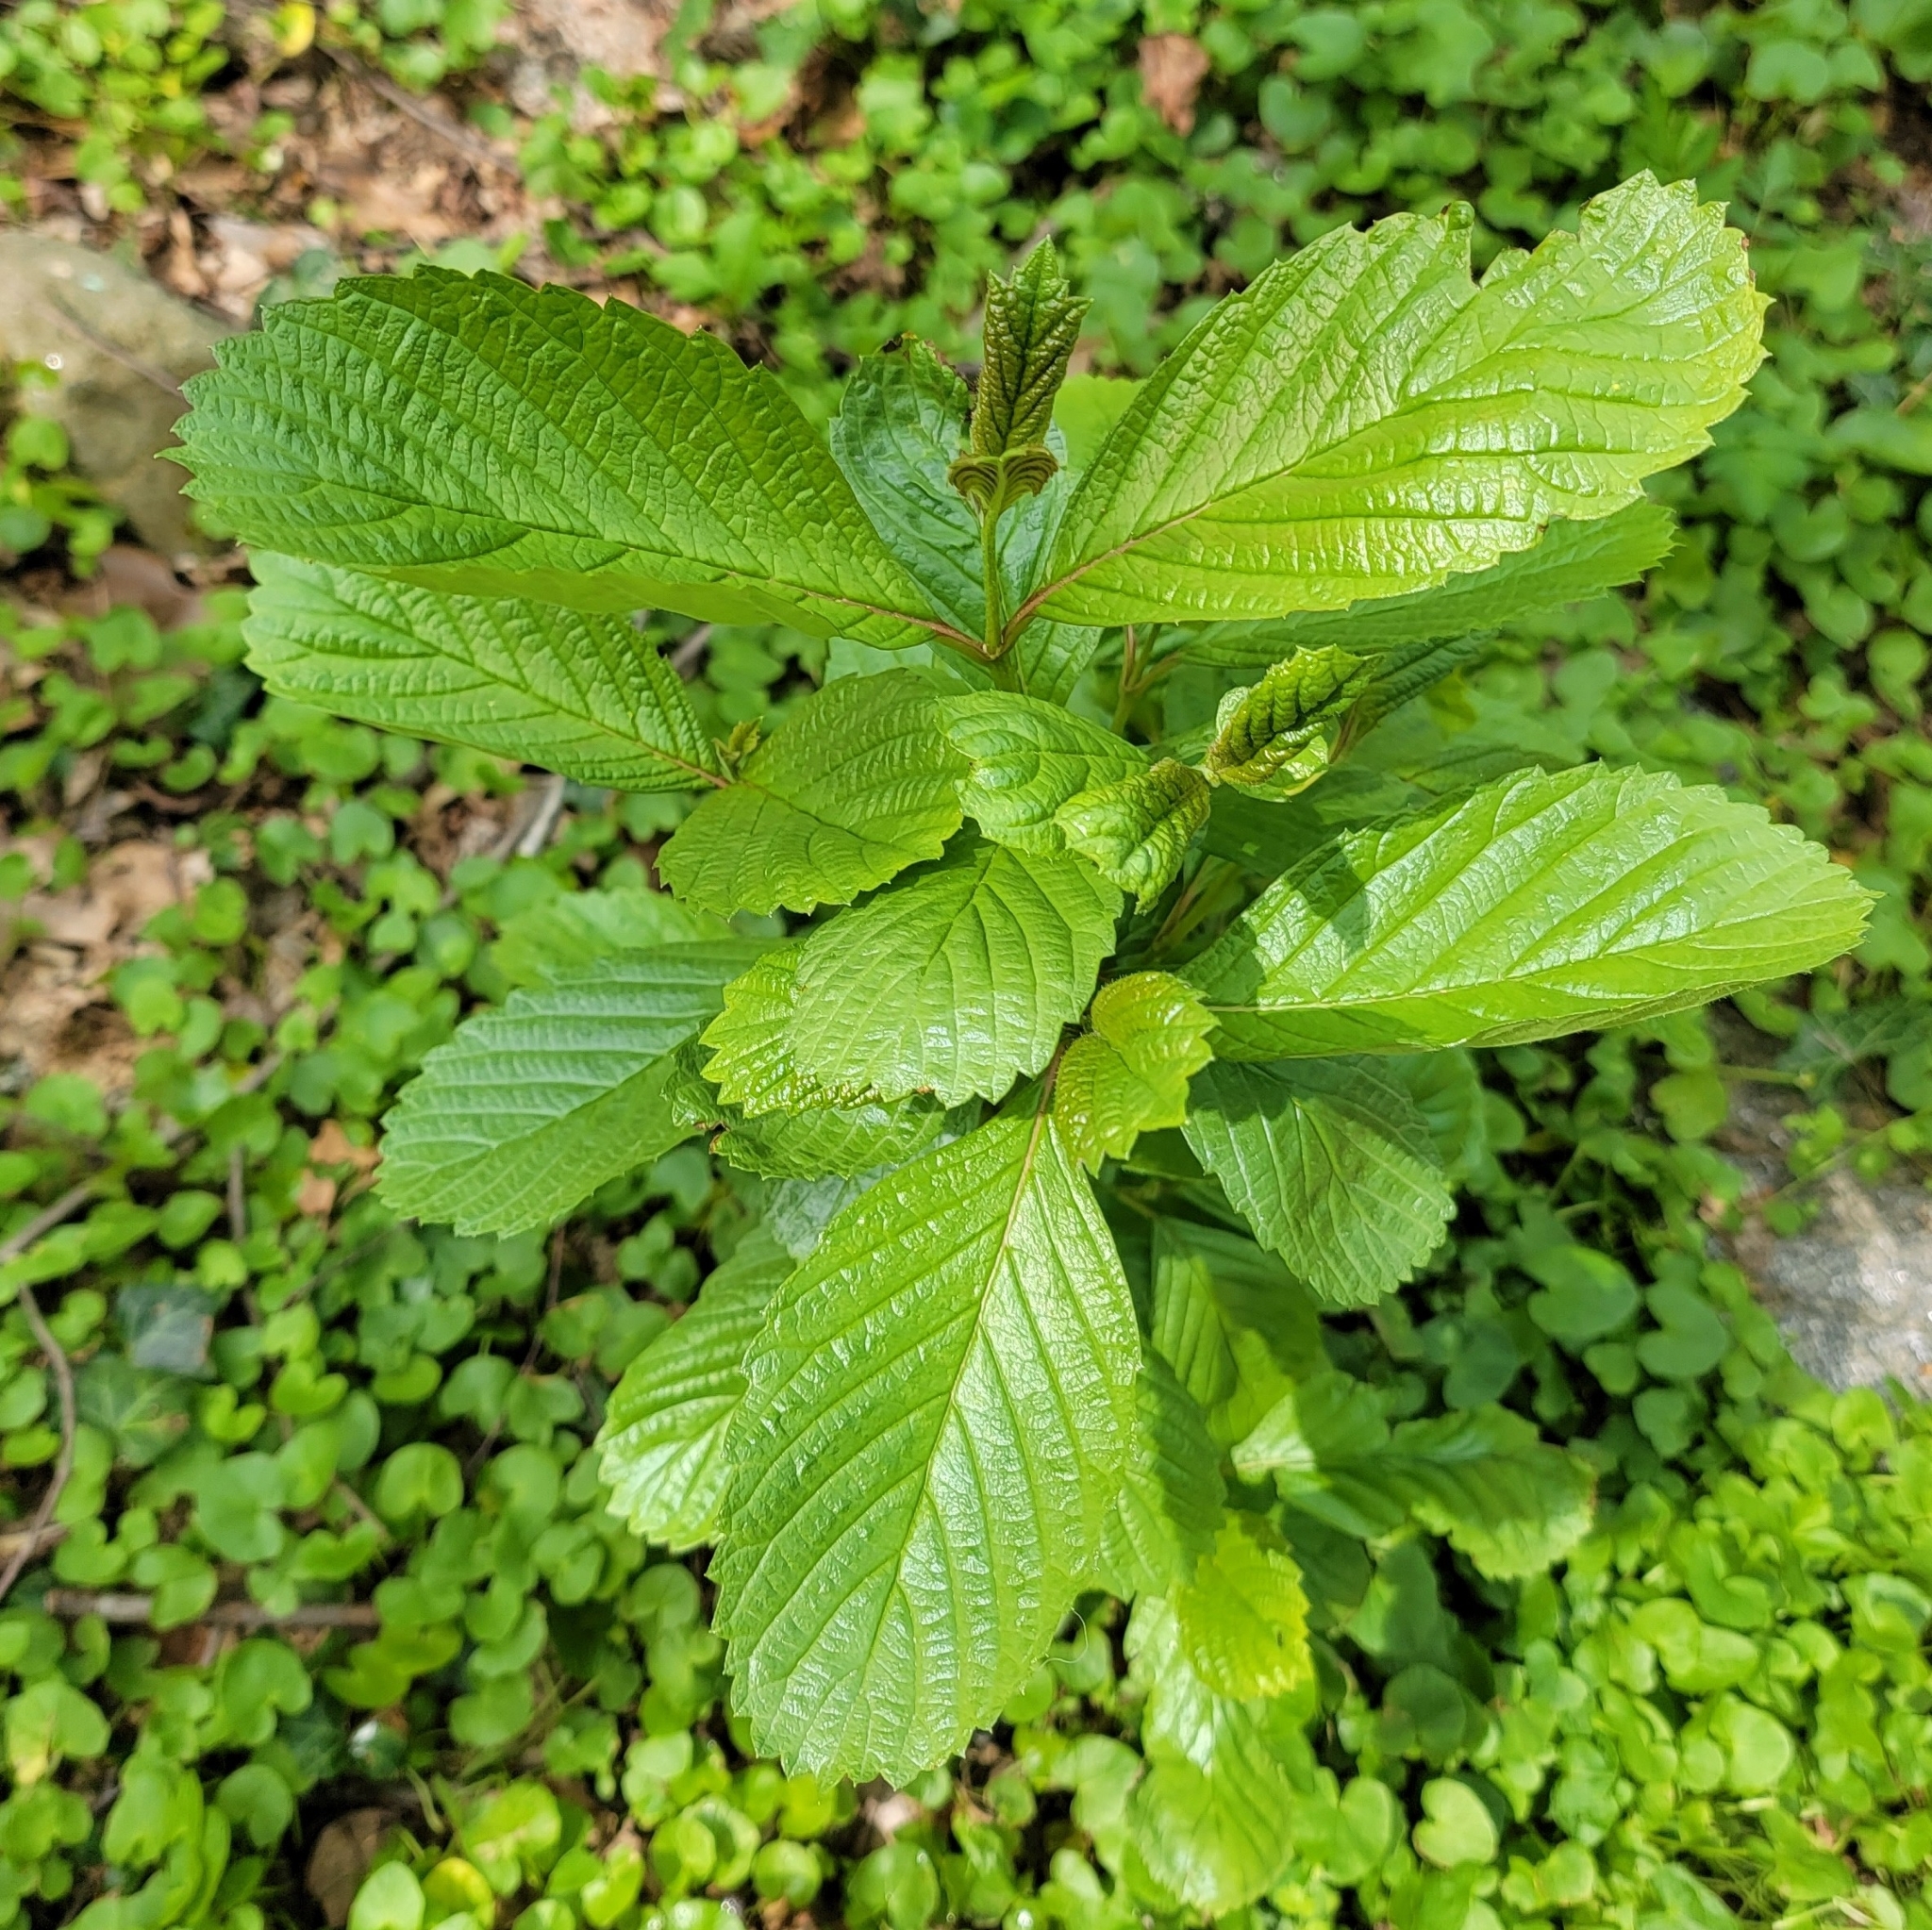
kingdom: Plantae
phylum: Tracheophyta
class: Magnoliopsida
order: Dipsacales
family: Viburnaceae
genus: Viburnum
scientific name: Viburnum sieboldii
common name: Siebold's arrowwood
